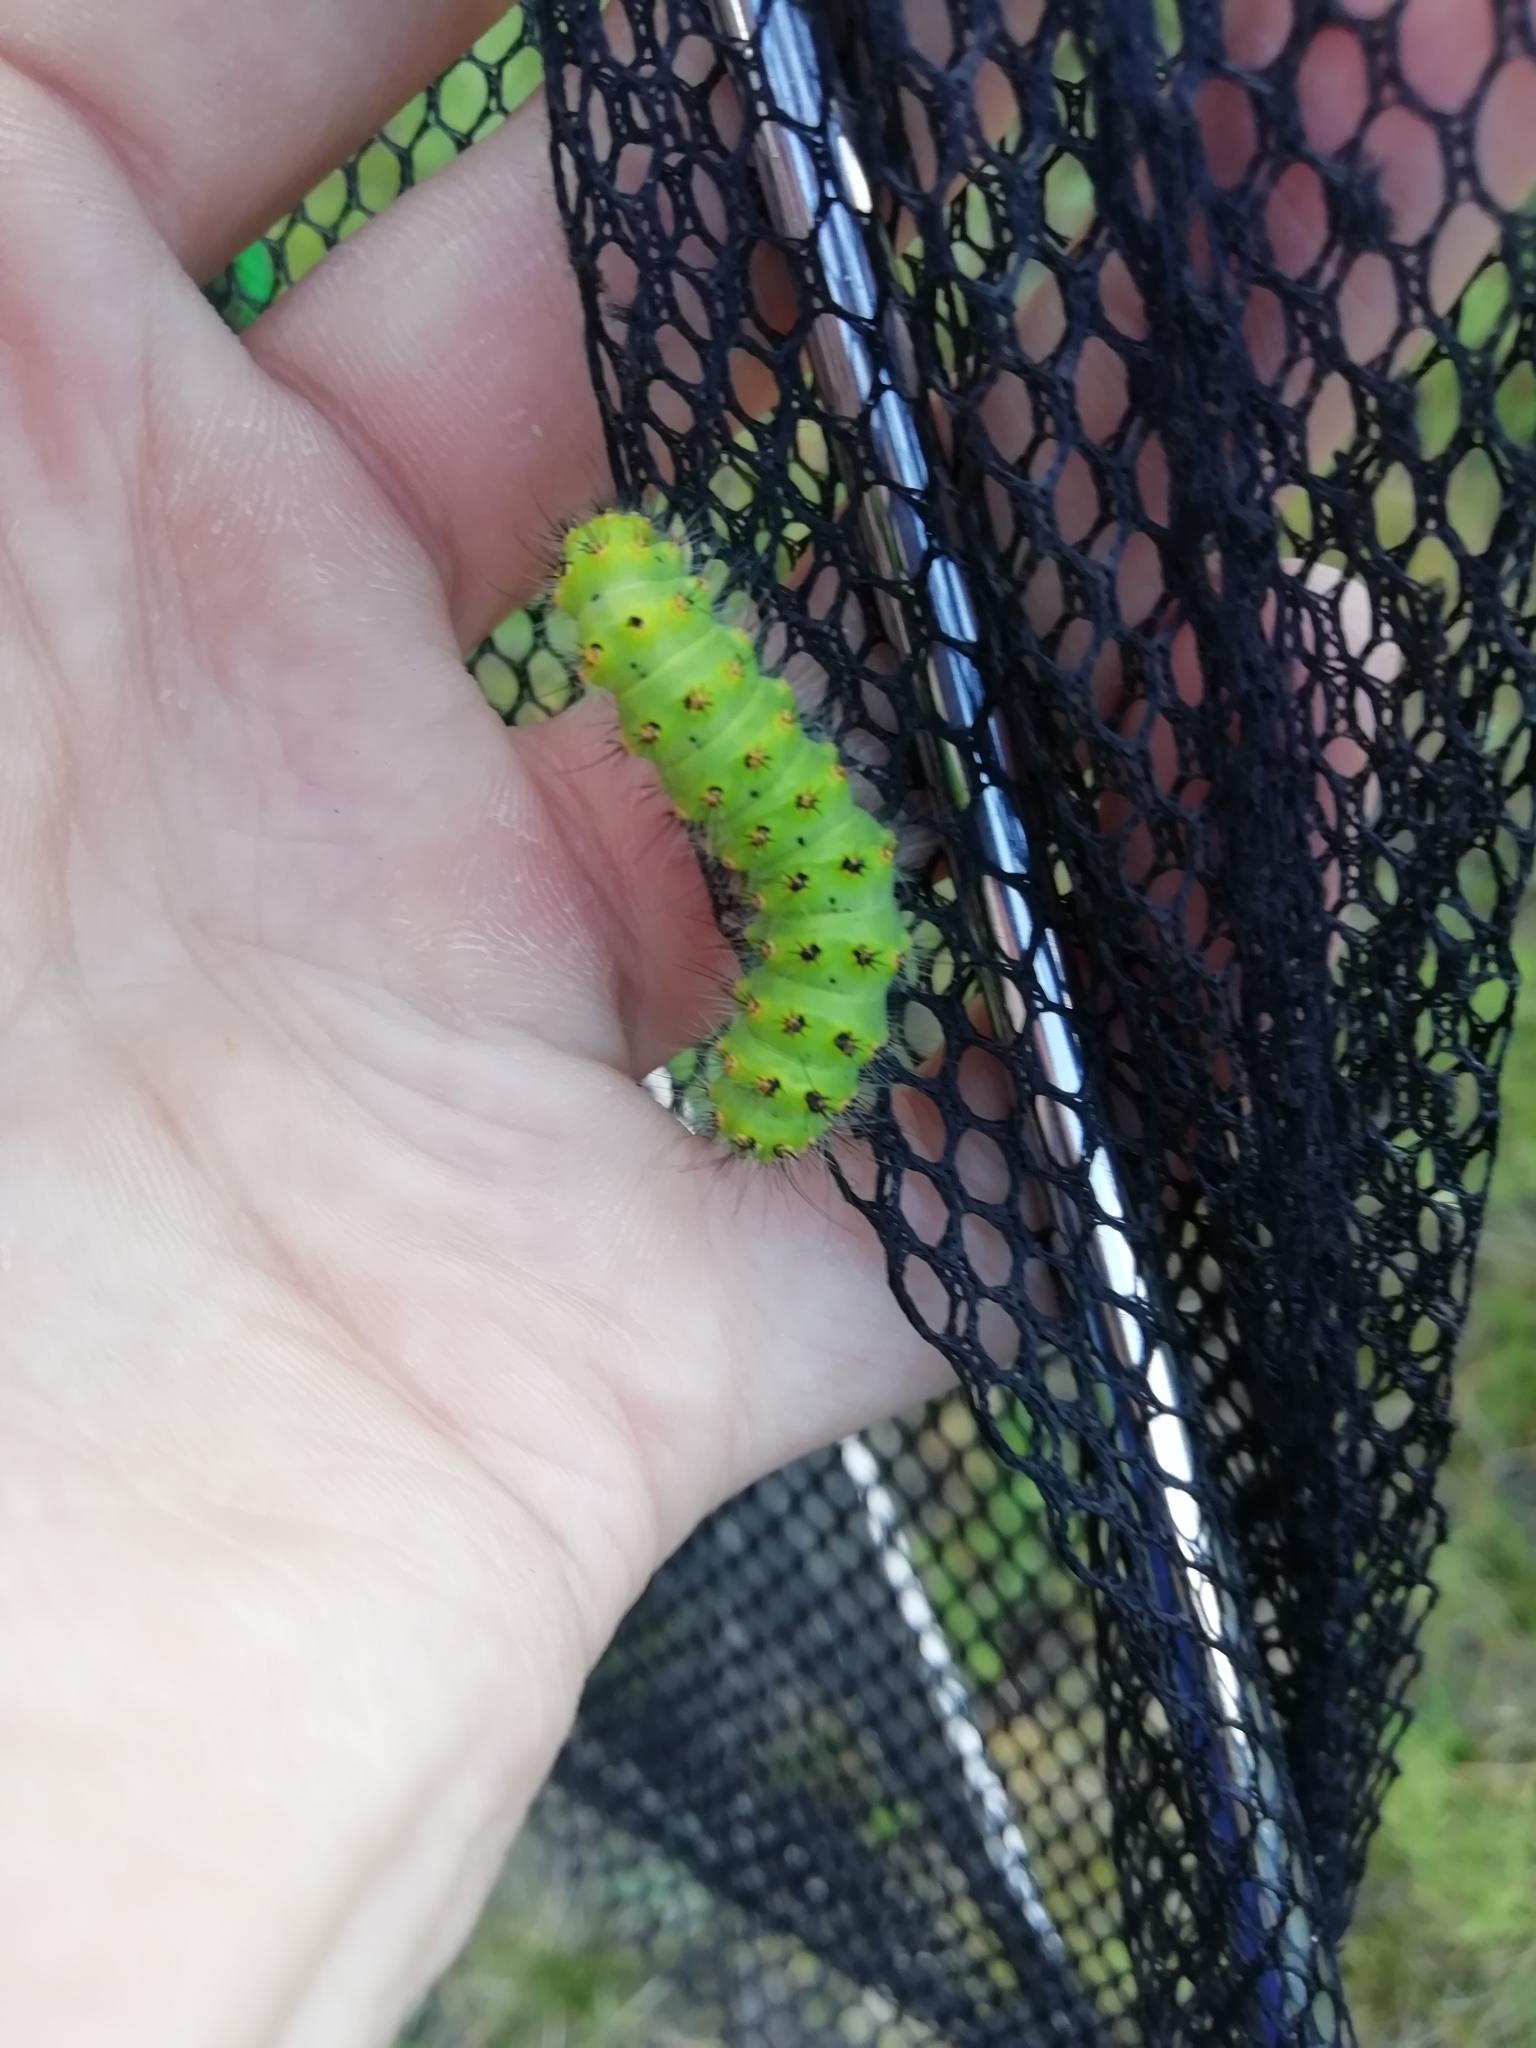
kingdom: Animalia
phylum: Arthropoda
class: Insecta
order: Lepidoptera
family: Saturniidae
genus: Saturnia
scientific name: Saturnia pavonia
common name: Emperor moth
